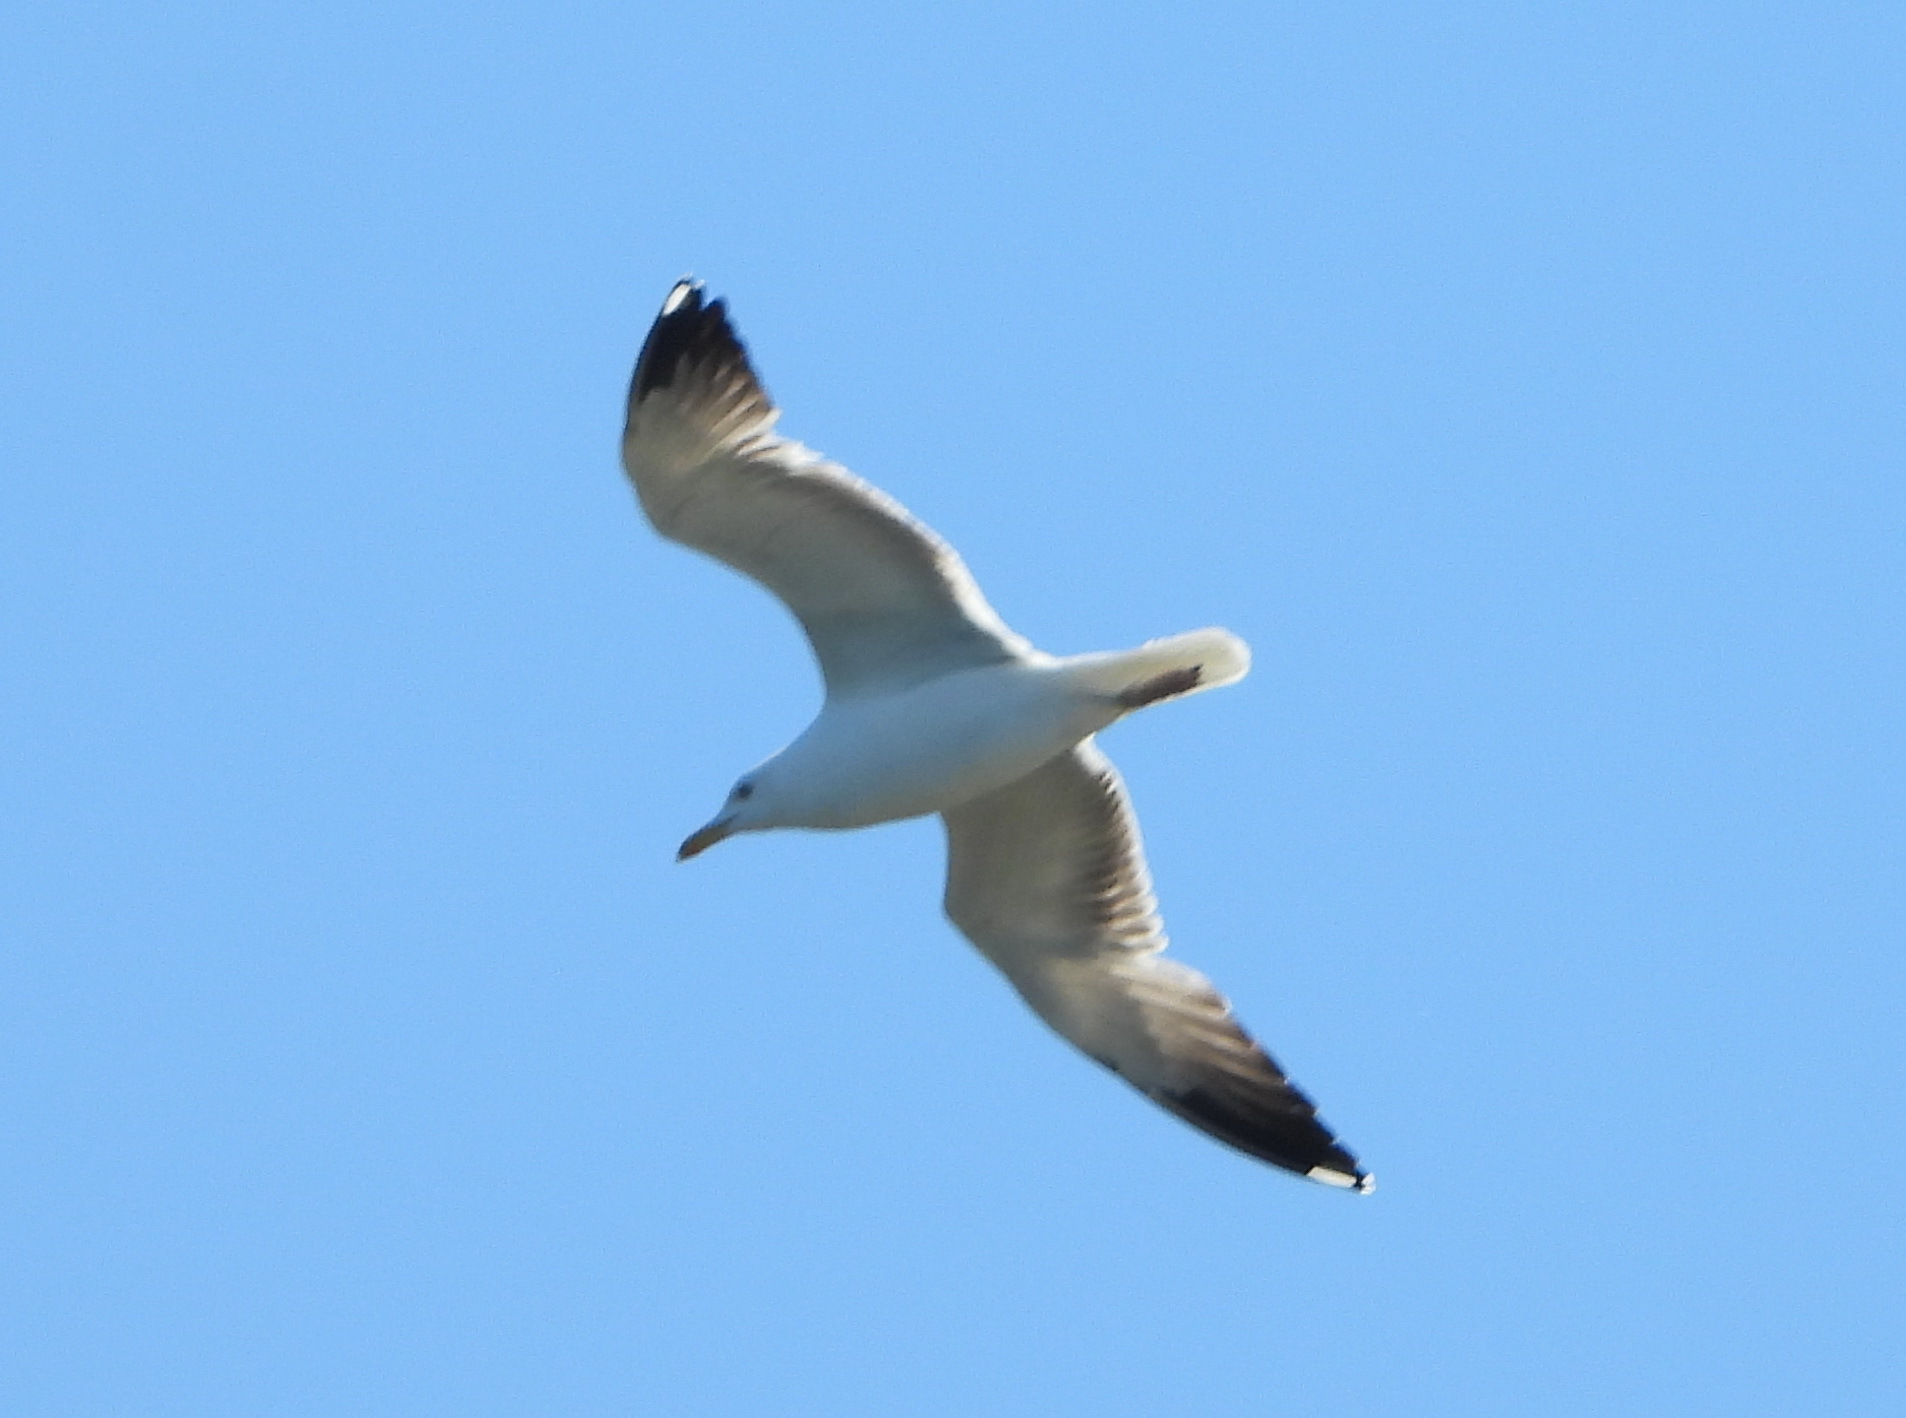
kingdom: Animalia
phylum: Chordata
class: Aves
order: Charadriiformes
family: Laridae
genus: Larus
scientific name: Larus cachinnans
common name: Caspian gull
